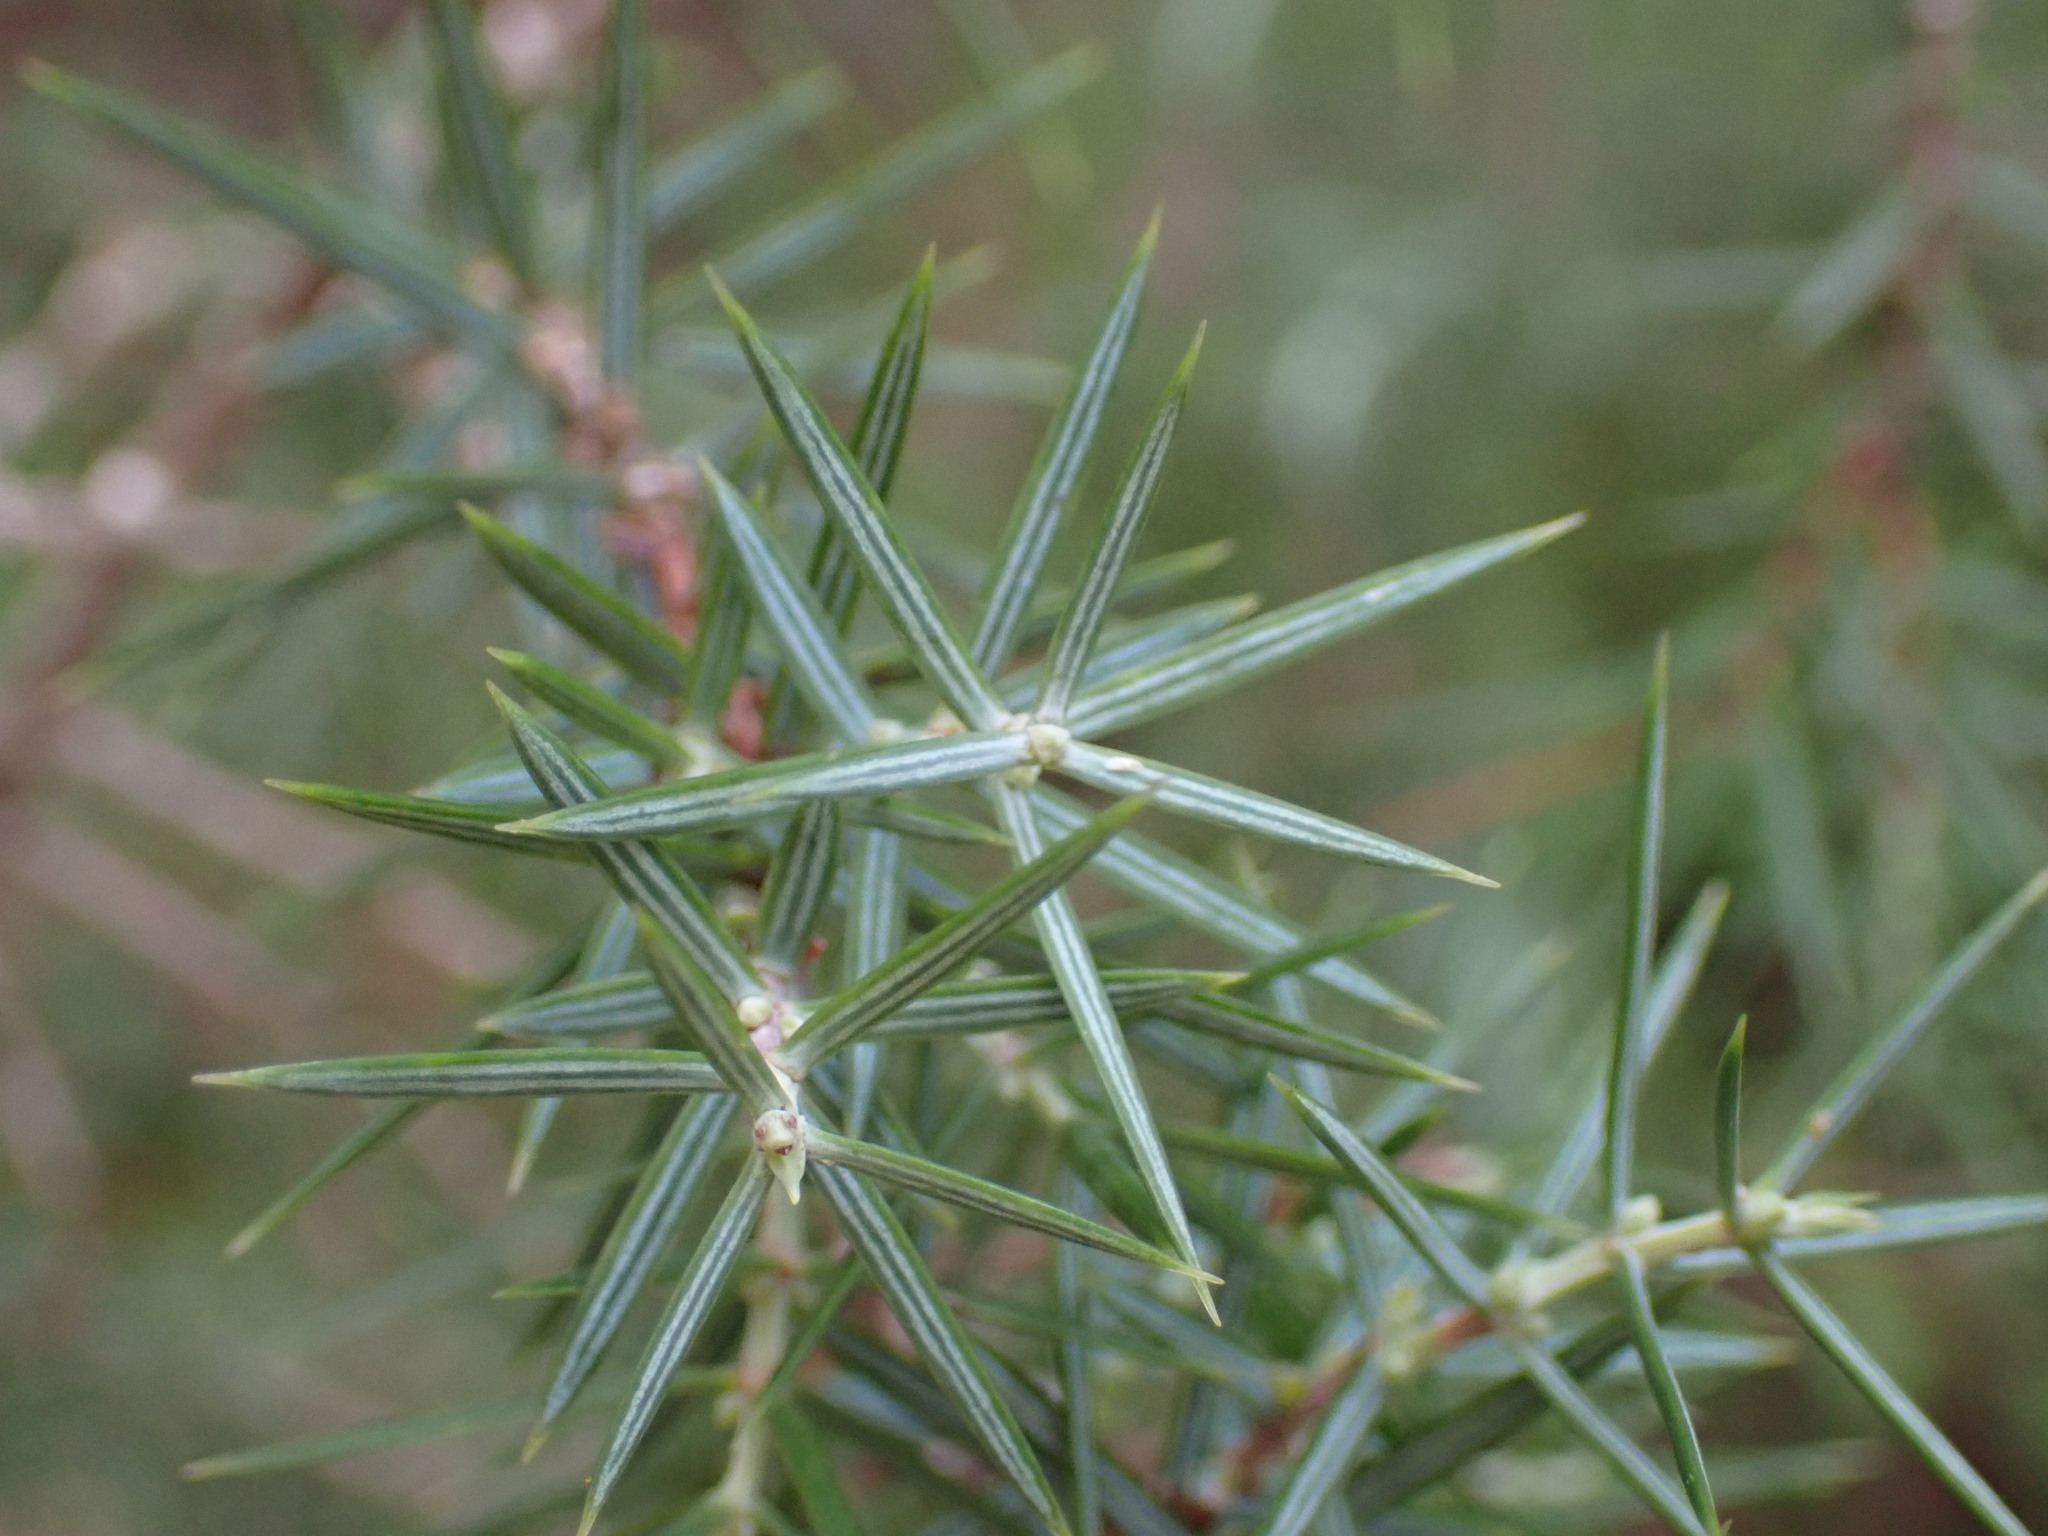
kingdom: Plantae
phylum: Tracheophyta
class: Pinopsida
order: Pinales
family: Cupressaceae
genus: Juniperus
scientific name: Juniperus oxycedrus
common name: Prickly juniper
